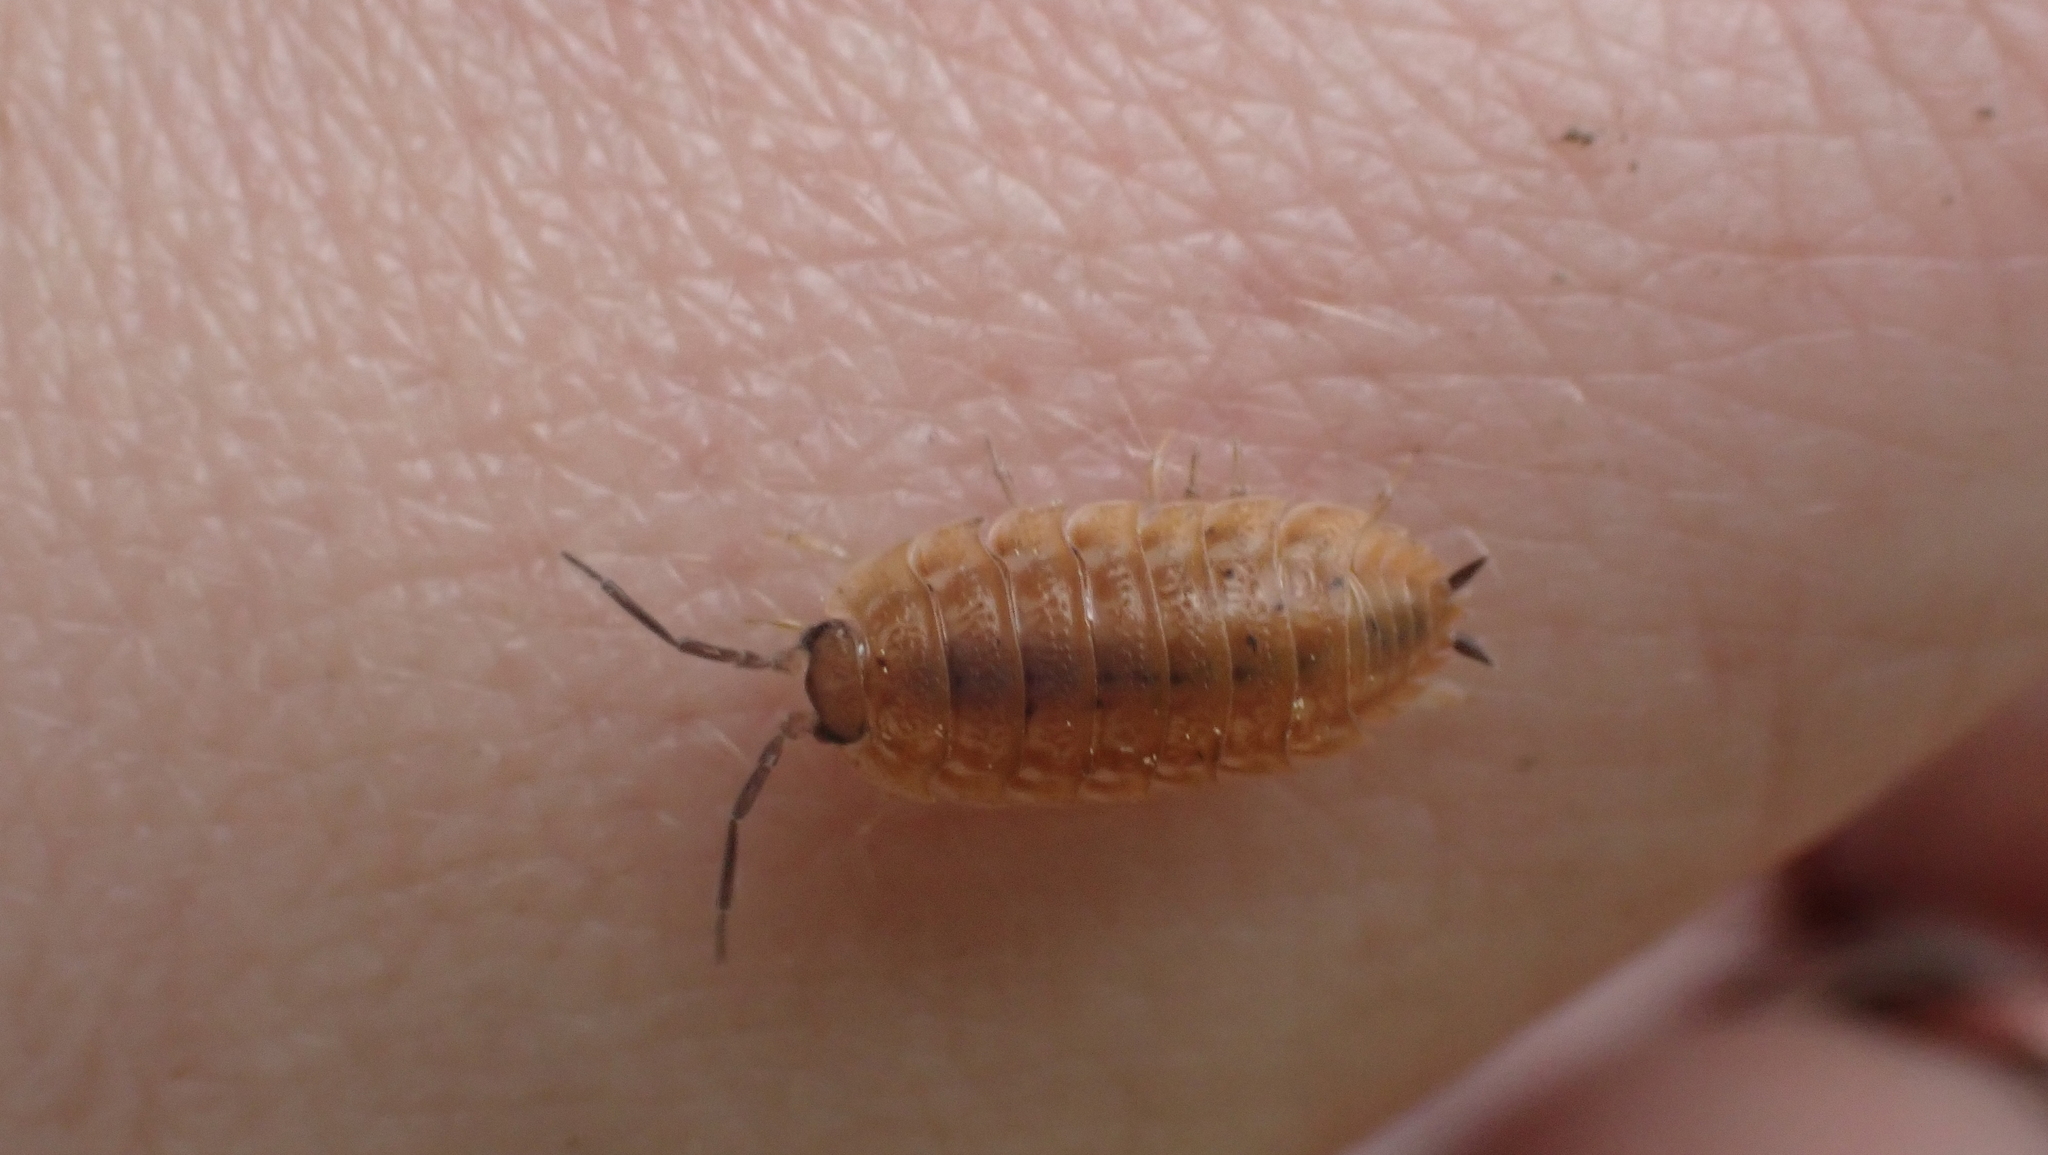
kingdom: Animalia
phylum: Arthropoda
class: Malacostraca
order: Isopoda
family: Trachelipodidae
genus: Trachelipus
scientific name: Trachelipus rathkii
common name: Isopod
